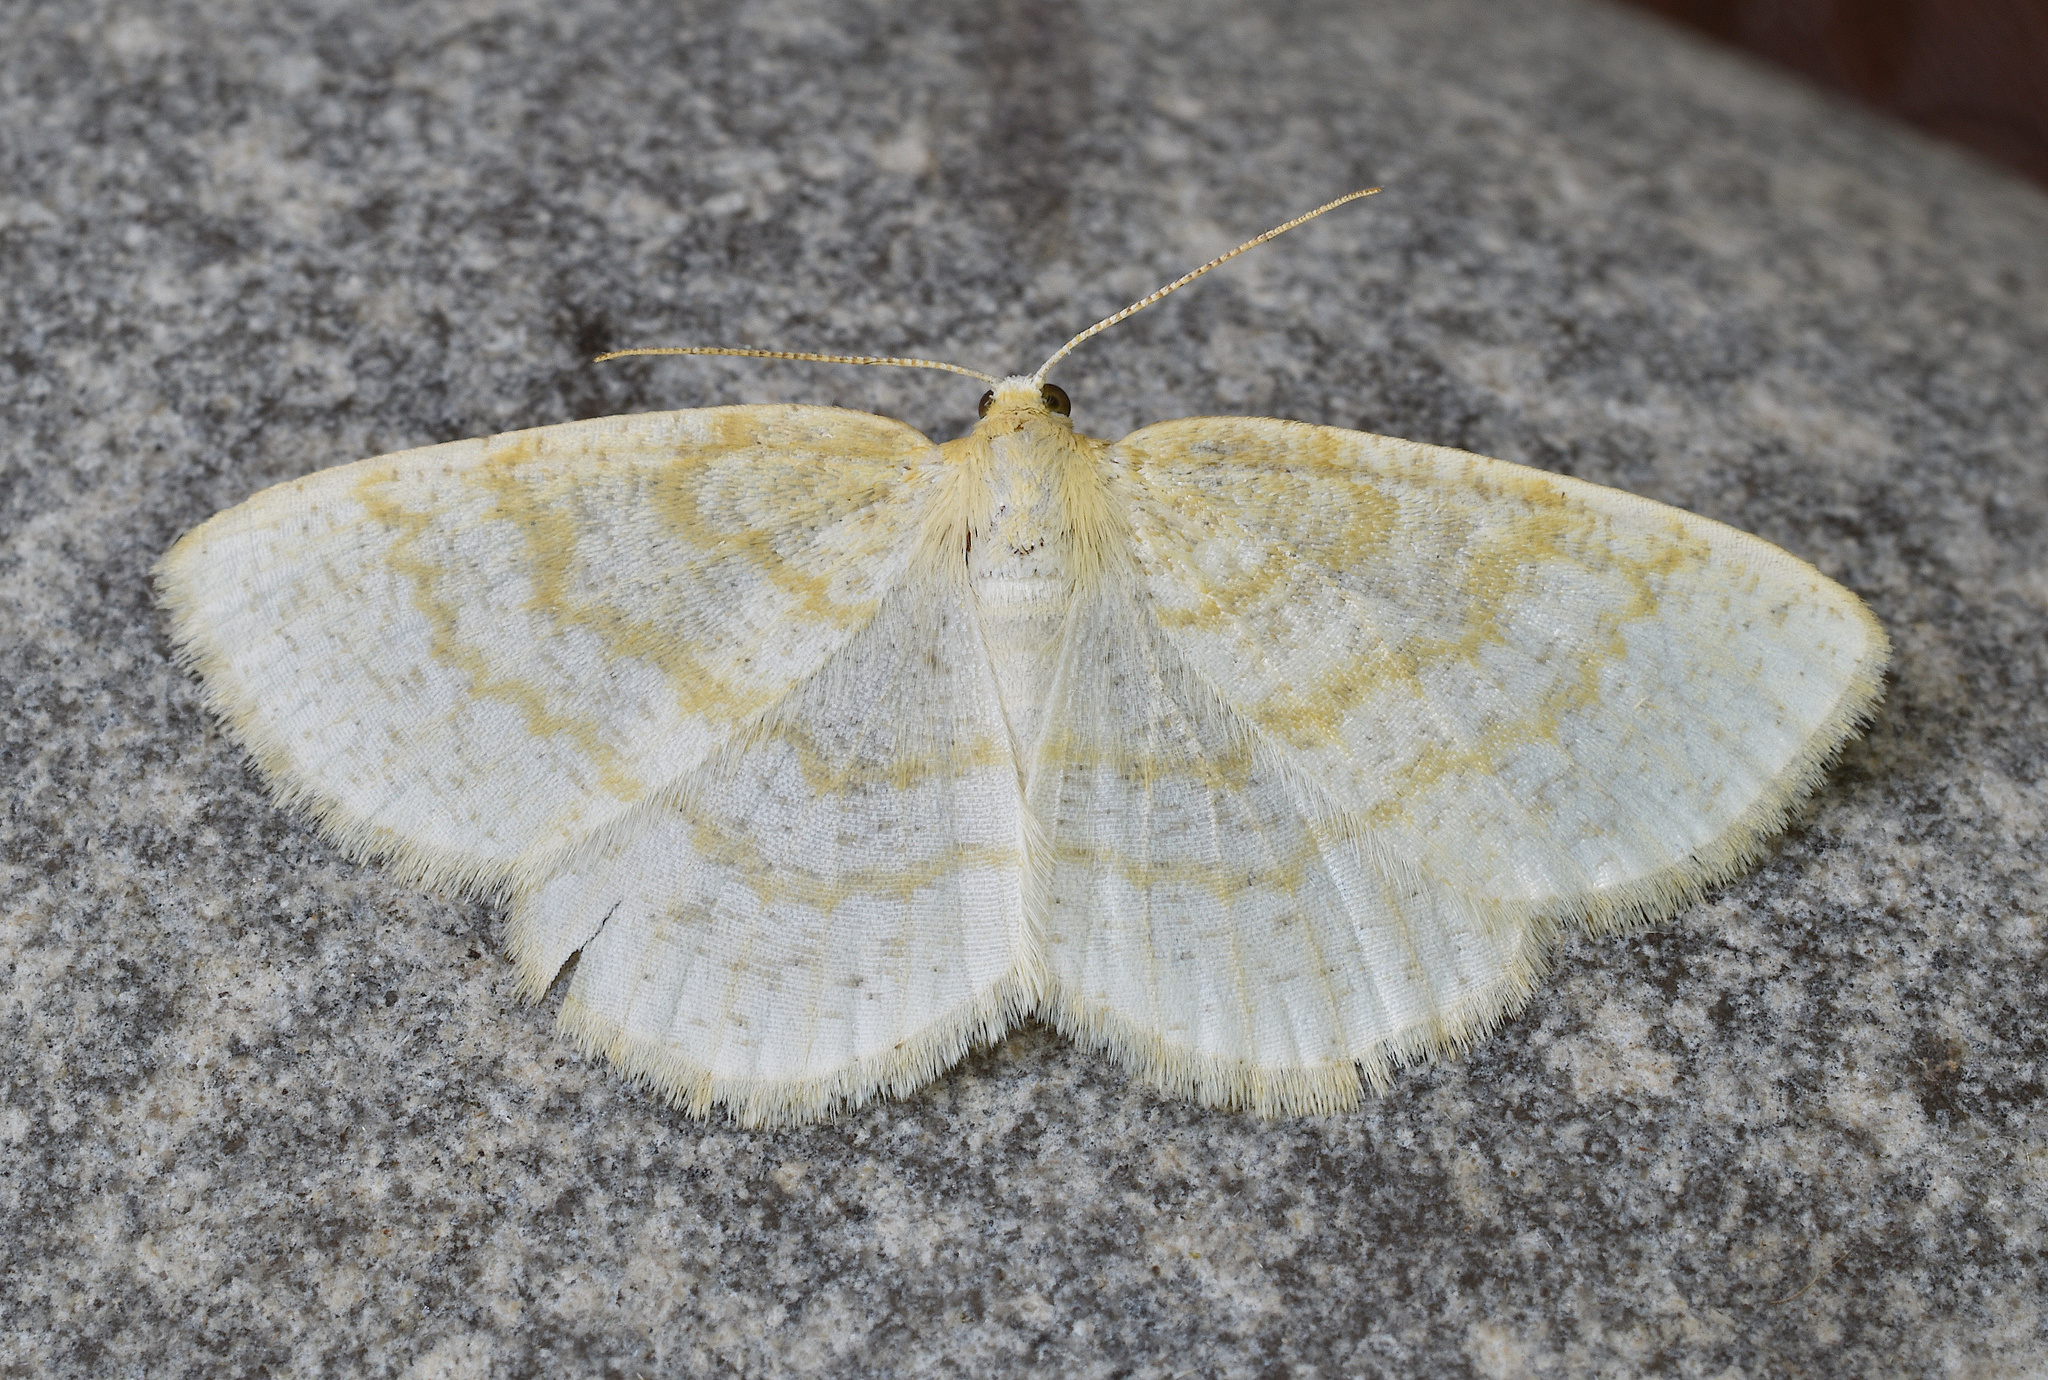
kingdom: Animalia
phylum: Arthropoda
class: Insecta
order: Lepidoptera
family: Geometridae
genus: Cabera
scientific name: Cabera erythemaria
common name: Yellow-dusted cream moth
